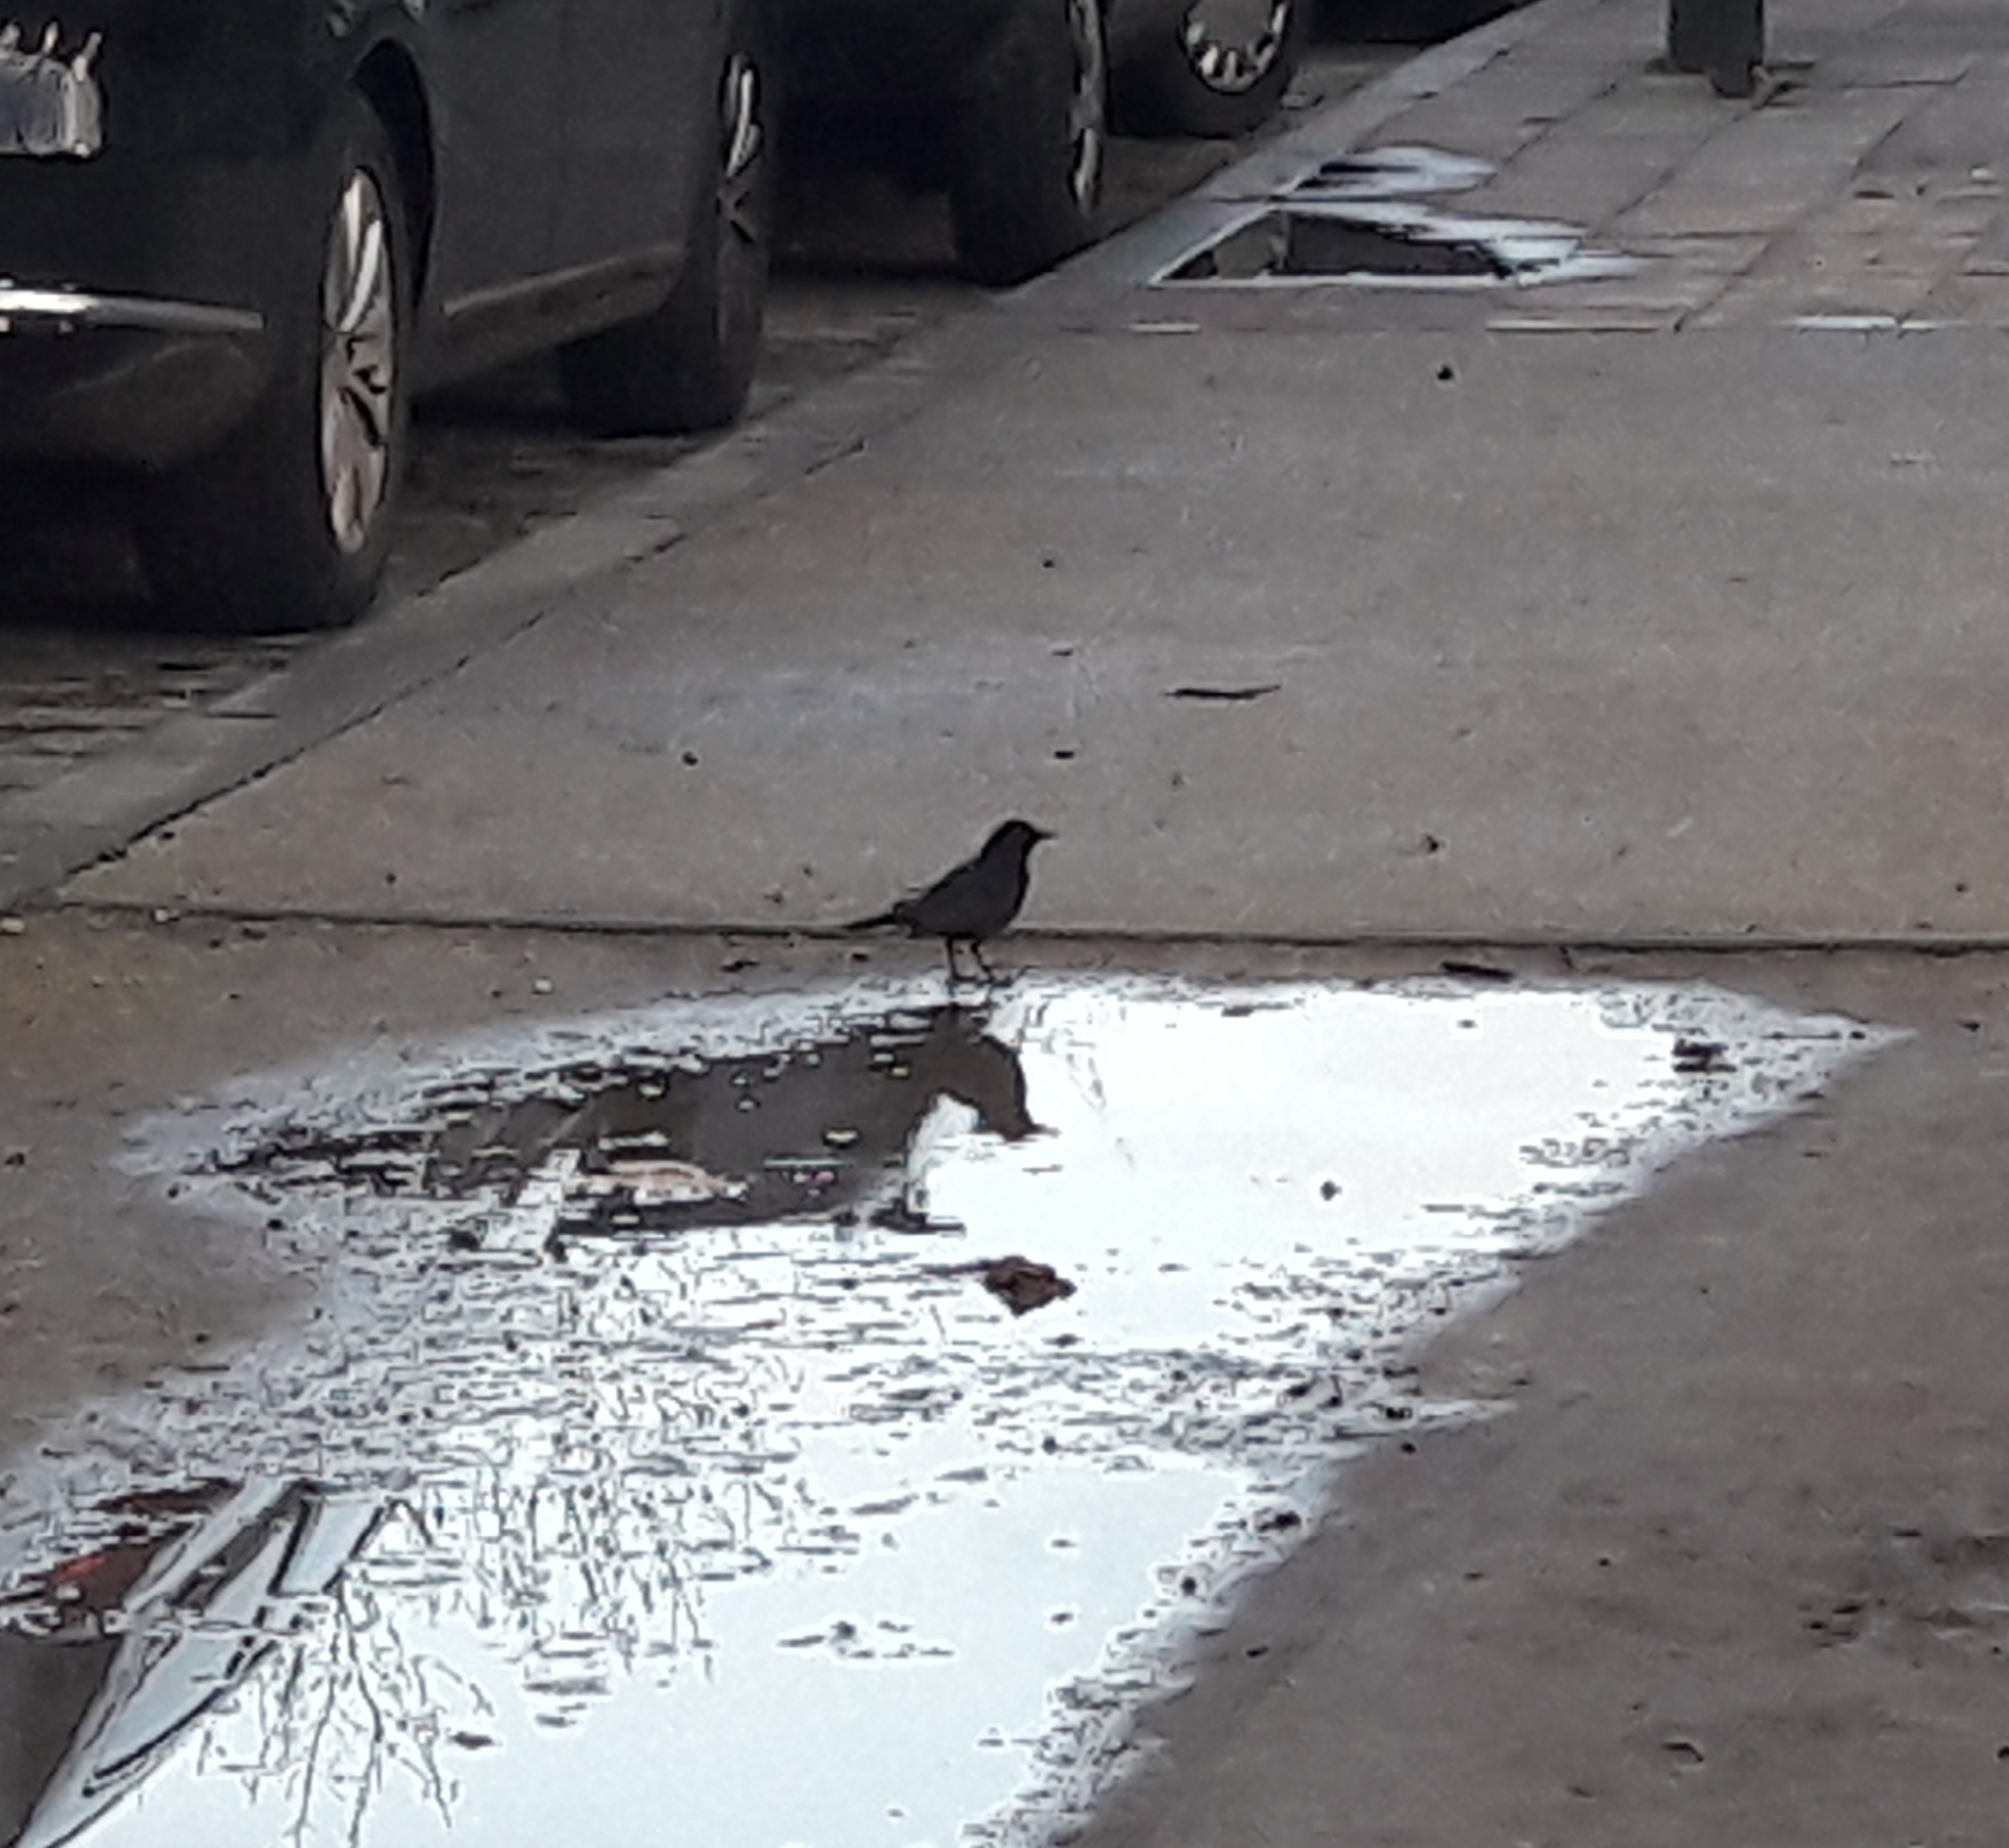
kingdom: Animalia
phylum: Chordata
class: Aves
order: Passeriformes
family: Turdidae
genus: Turdus
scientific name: Turdus merula
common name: Common blackbird
